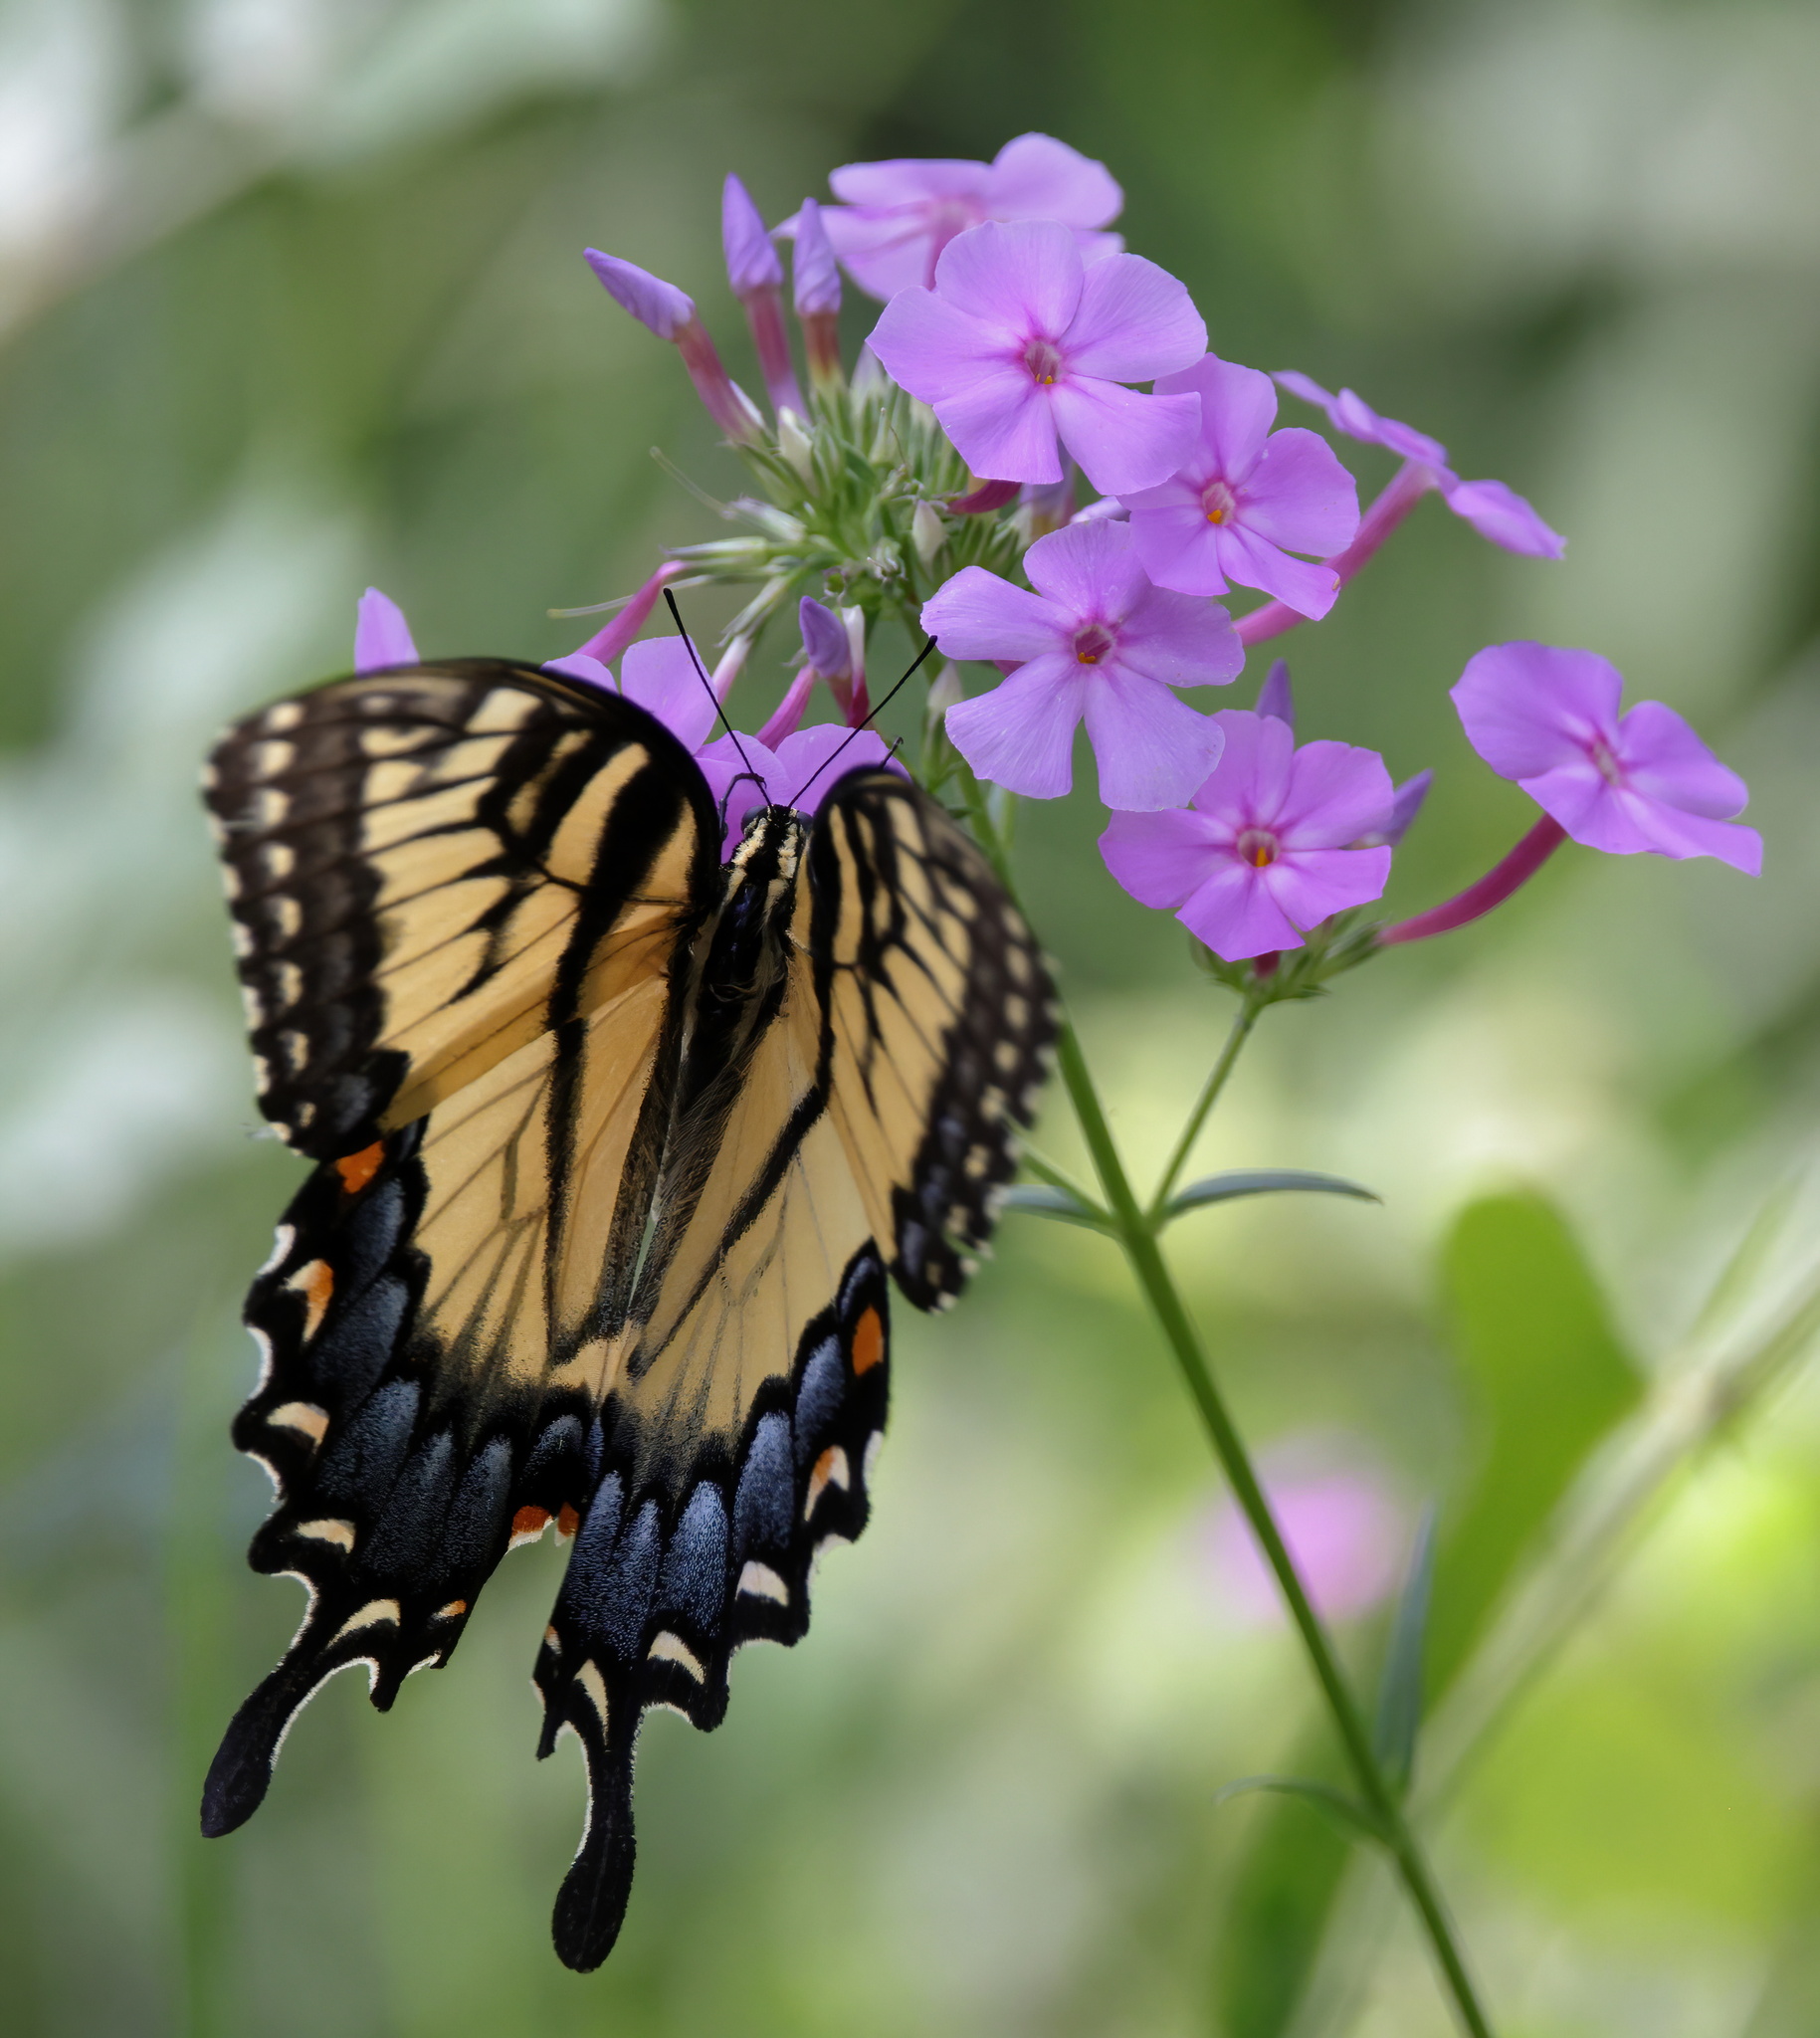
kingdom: Animalia
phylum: Arthropoda
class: Insecta
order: Lepidoptera
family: Papilionidae
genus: Papilio
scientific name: Papilio glaucus
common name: Tiger swallowtail
